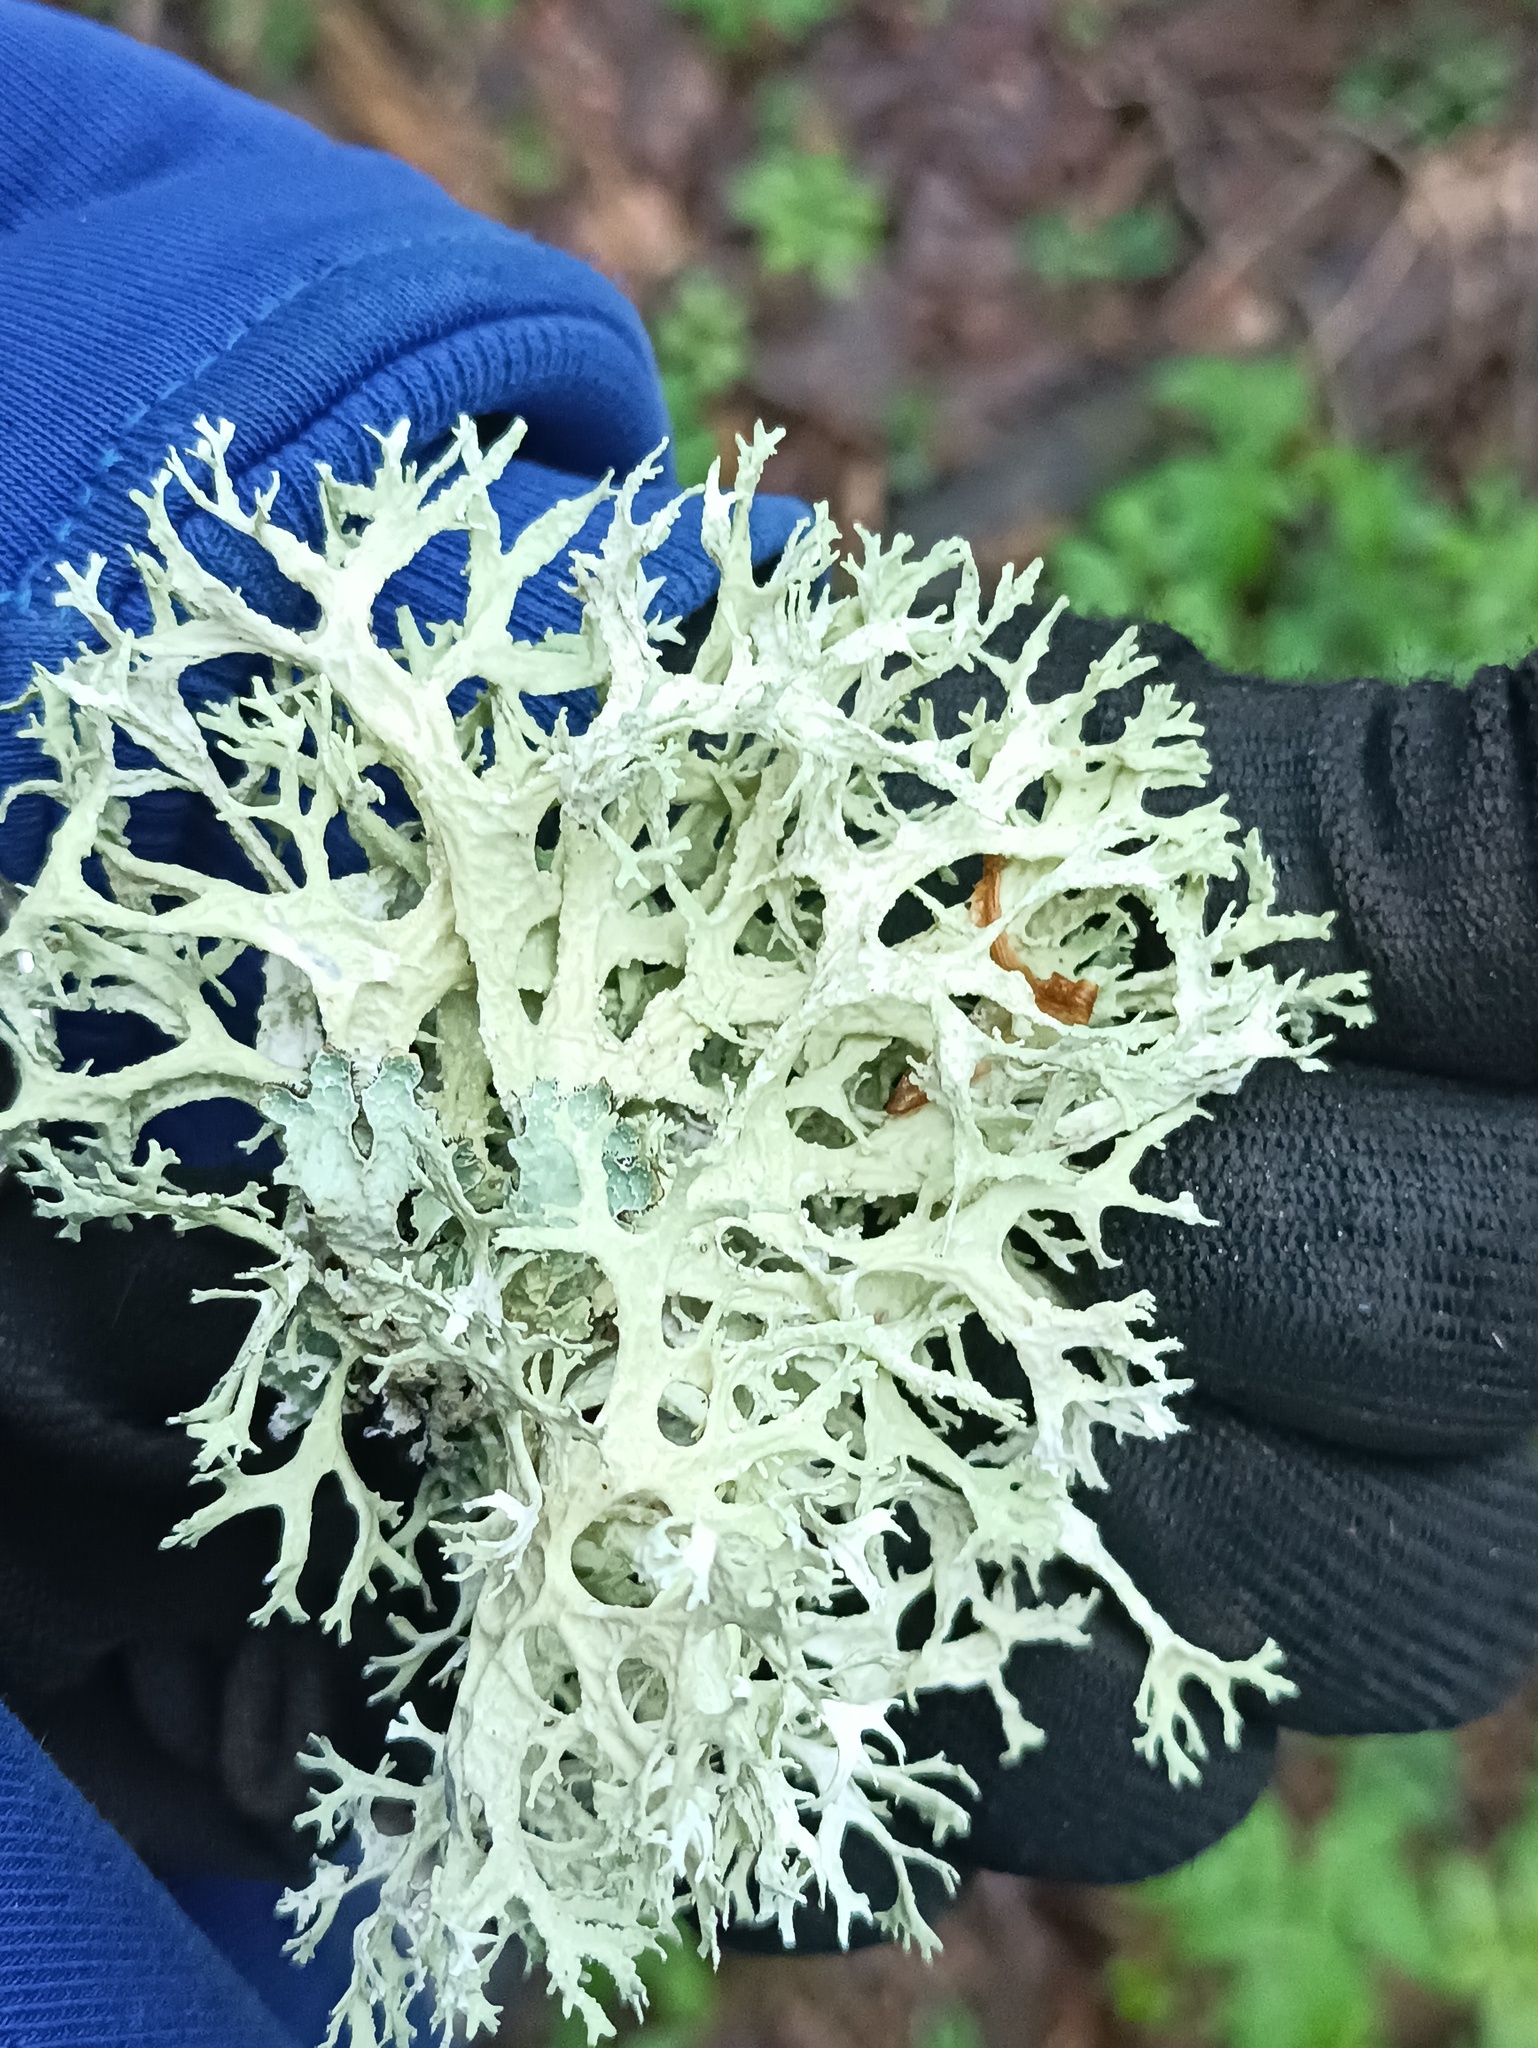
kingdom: Fungi
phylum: Ascomycota
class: Lecanoromycetes
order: Lecanorales
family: Parmeliaceae
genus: Evernia
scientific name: Evernia prunastri
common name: Oak moss
